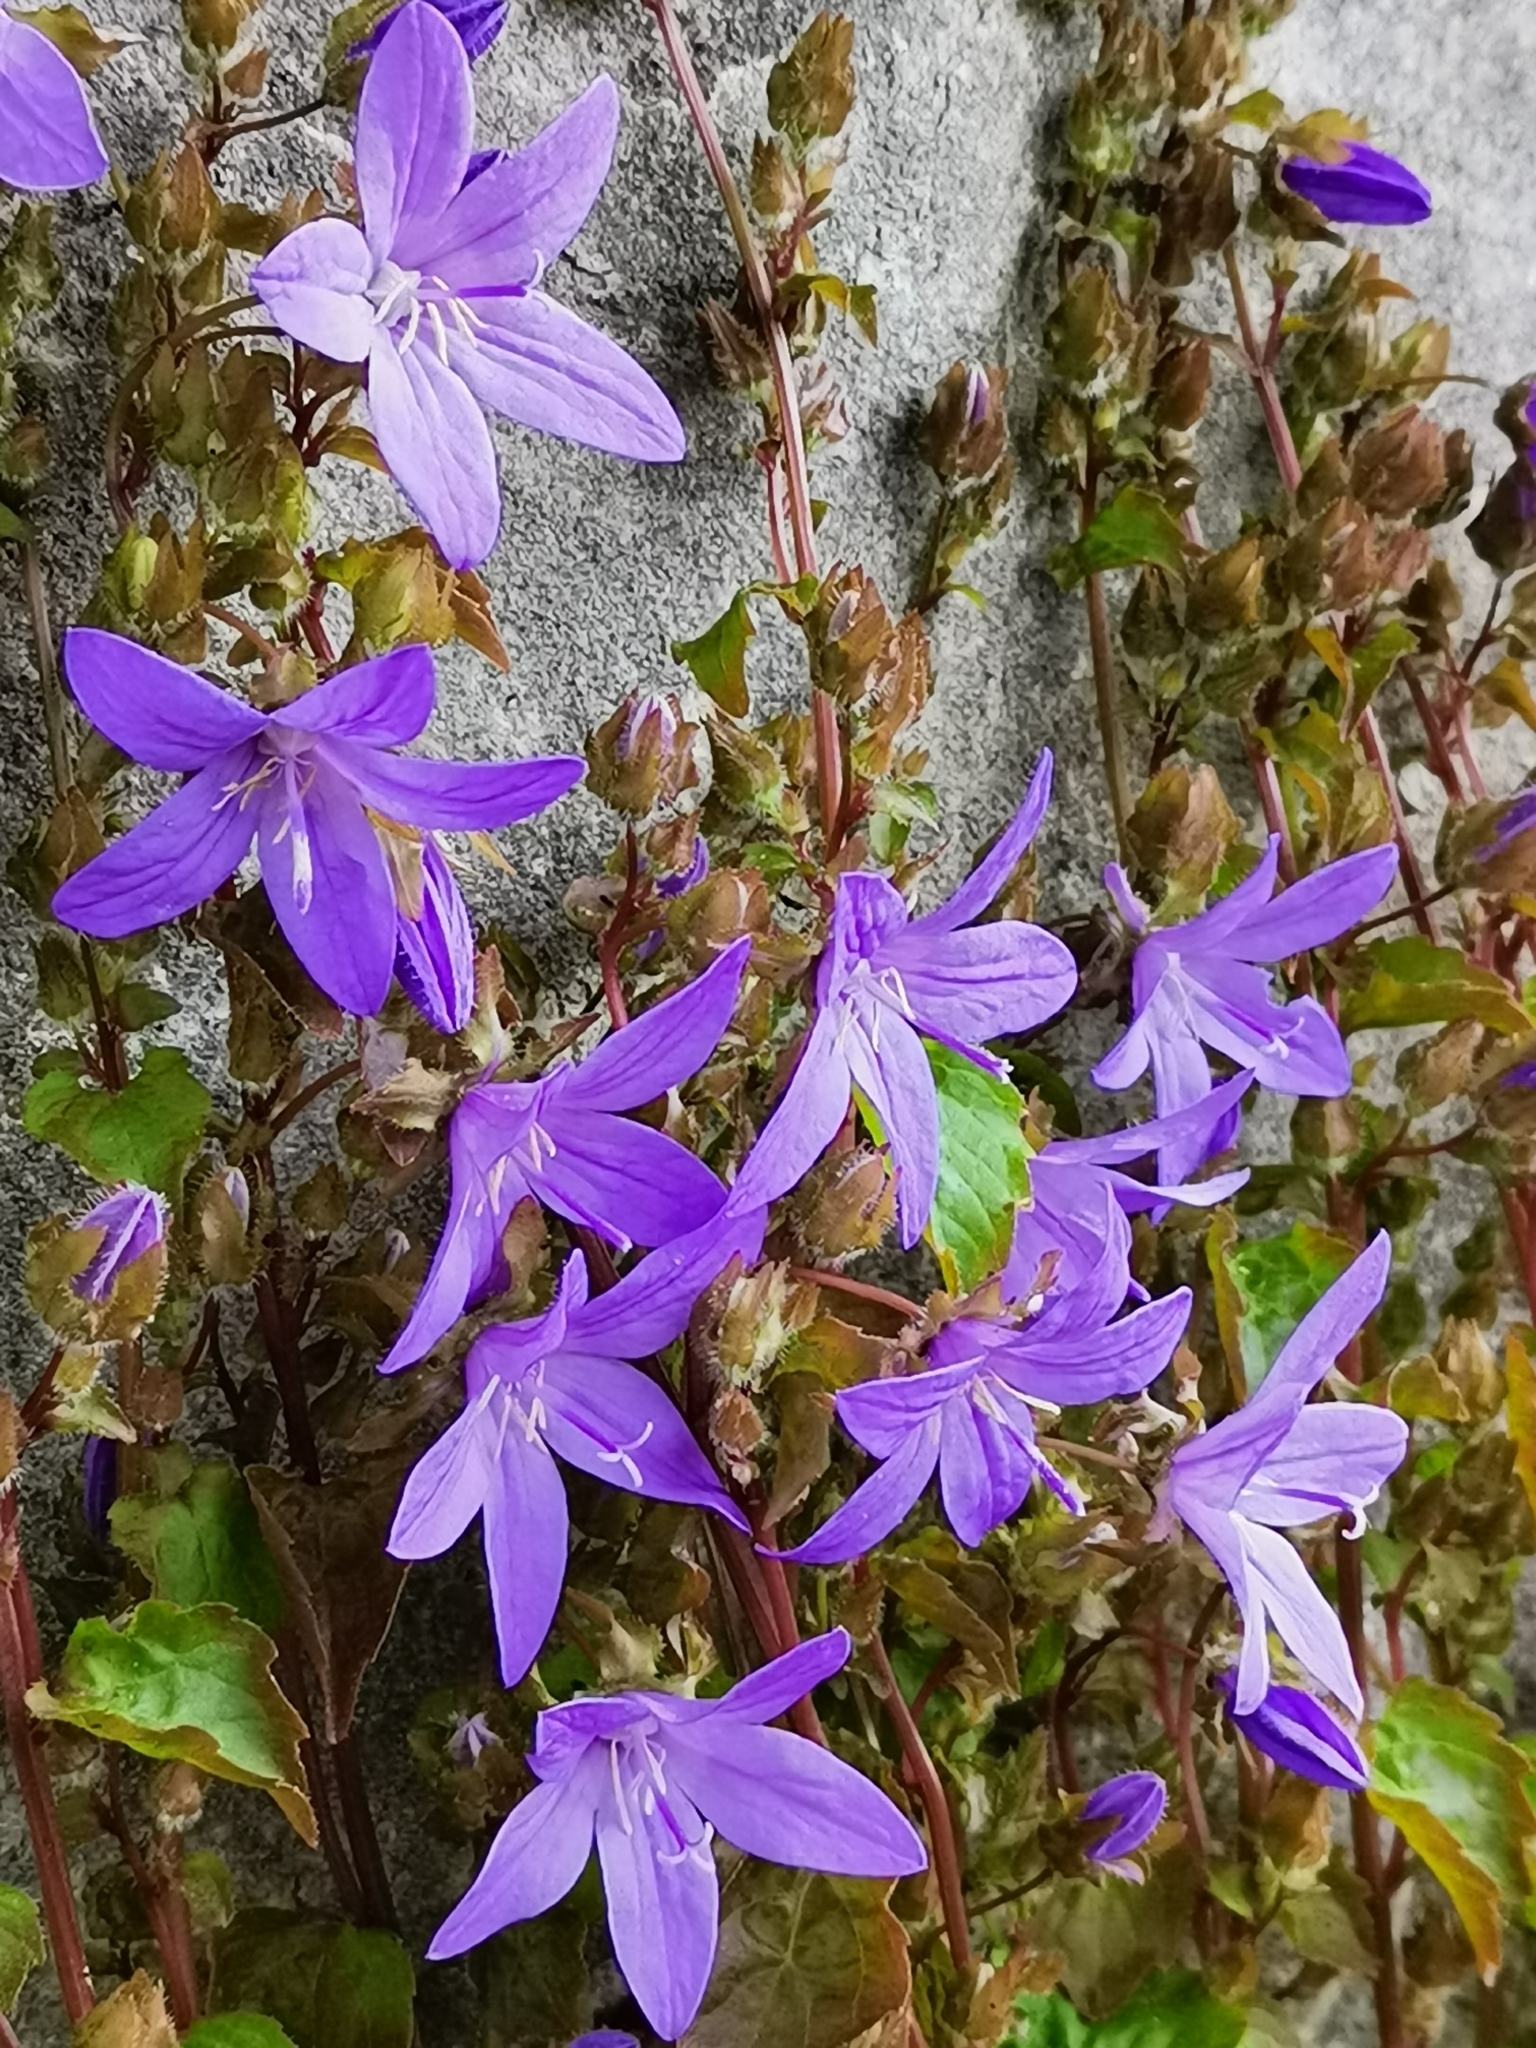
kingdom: Plantae
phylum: Tracheophyta
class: Magnoliopsida
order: Asterales
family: Campanulaceae
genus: Campanula
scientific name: Campanula poscharskyana
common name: Trailing bellflower
